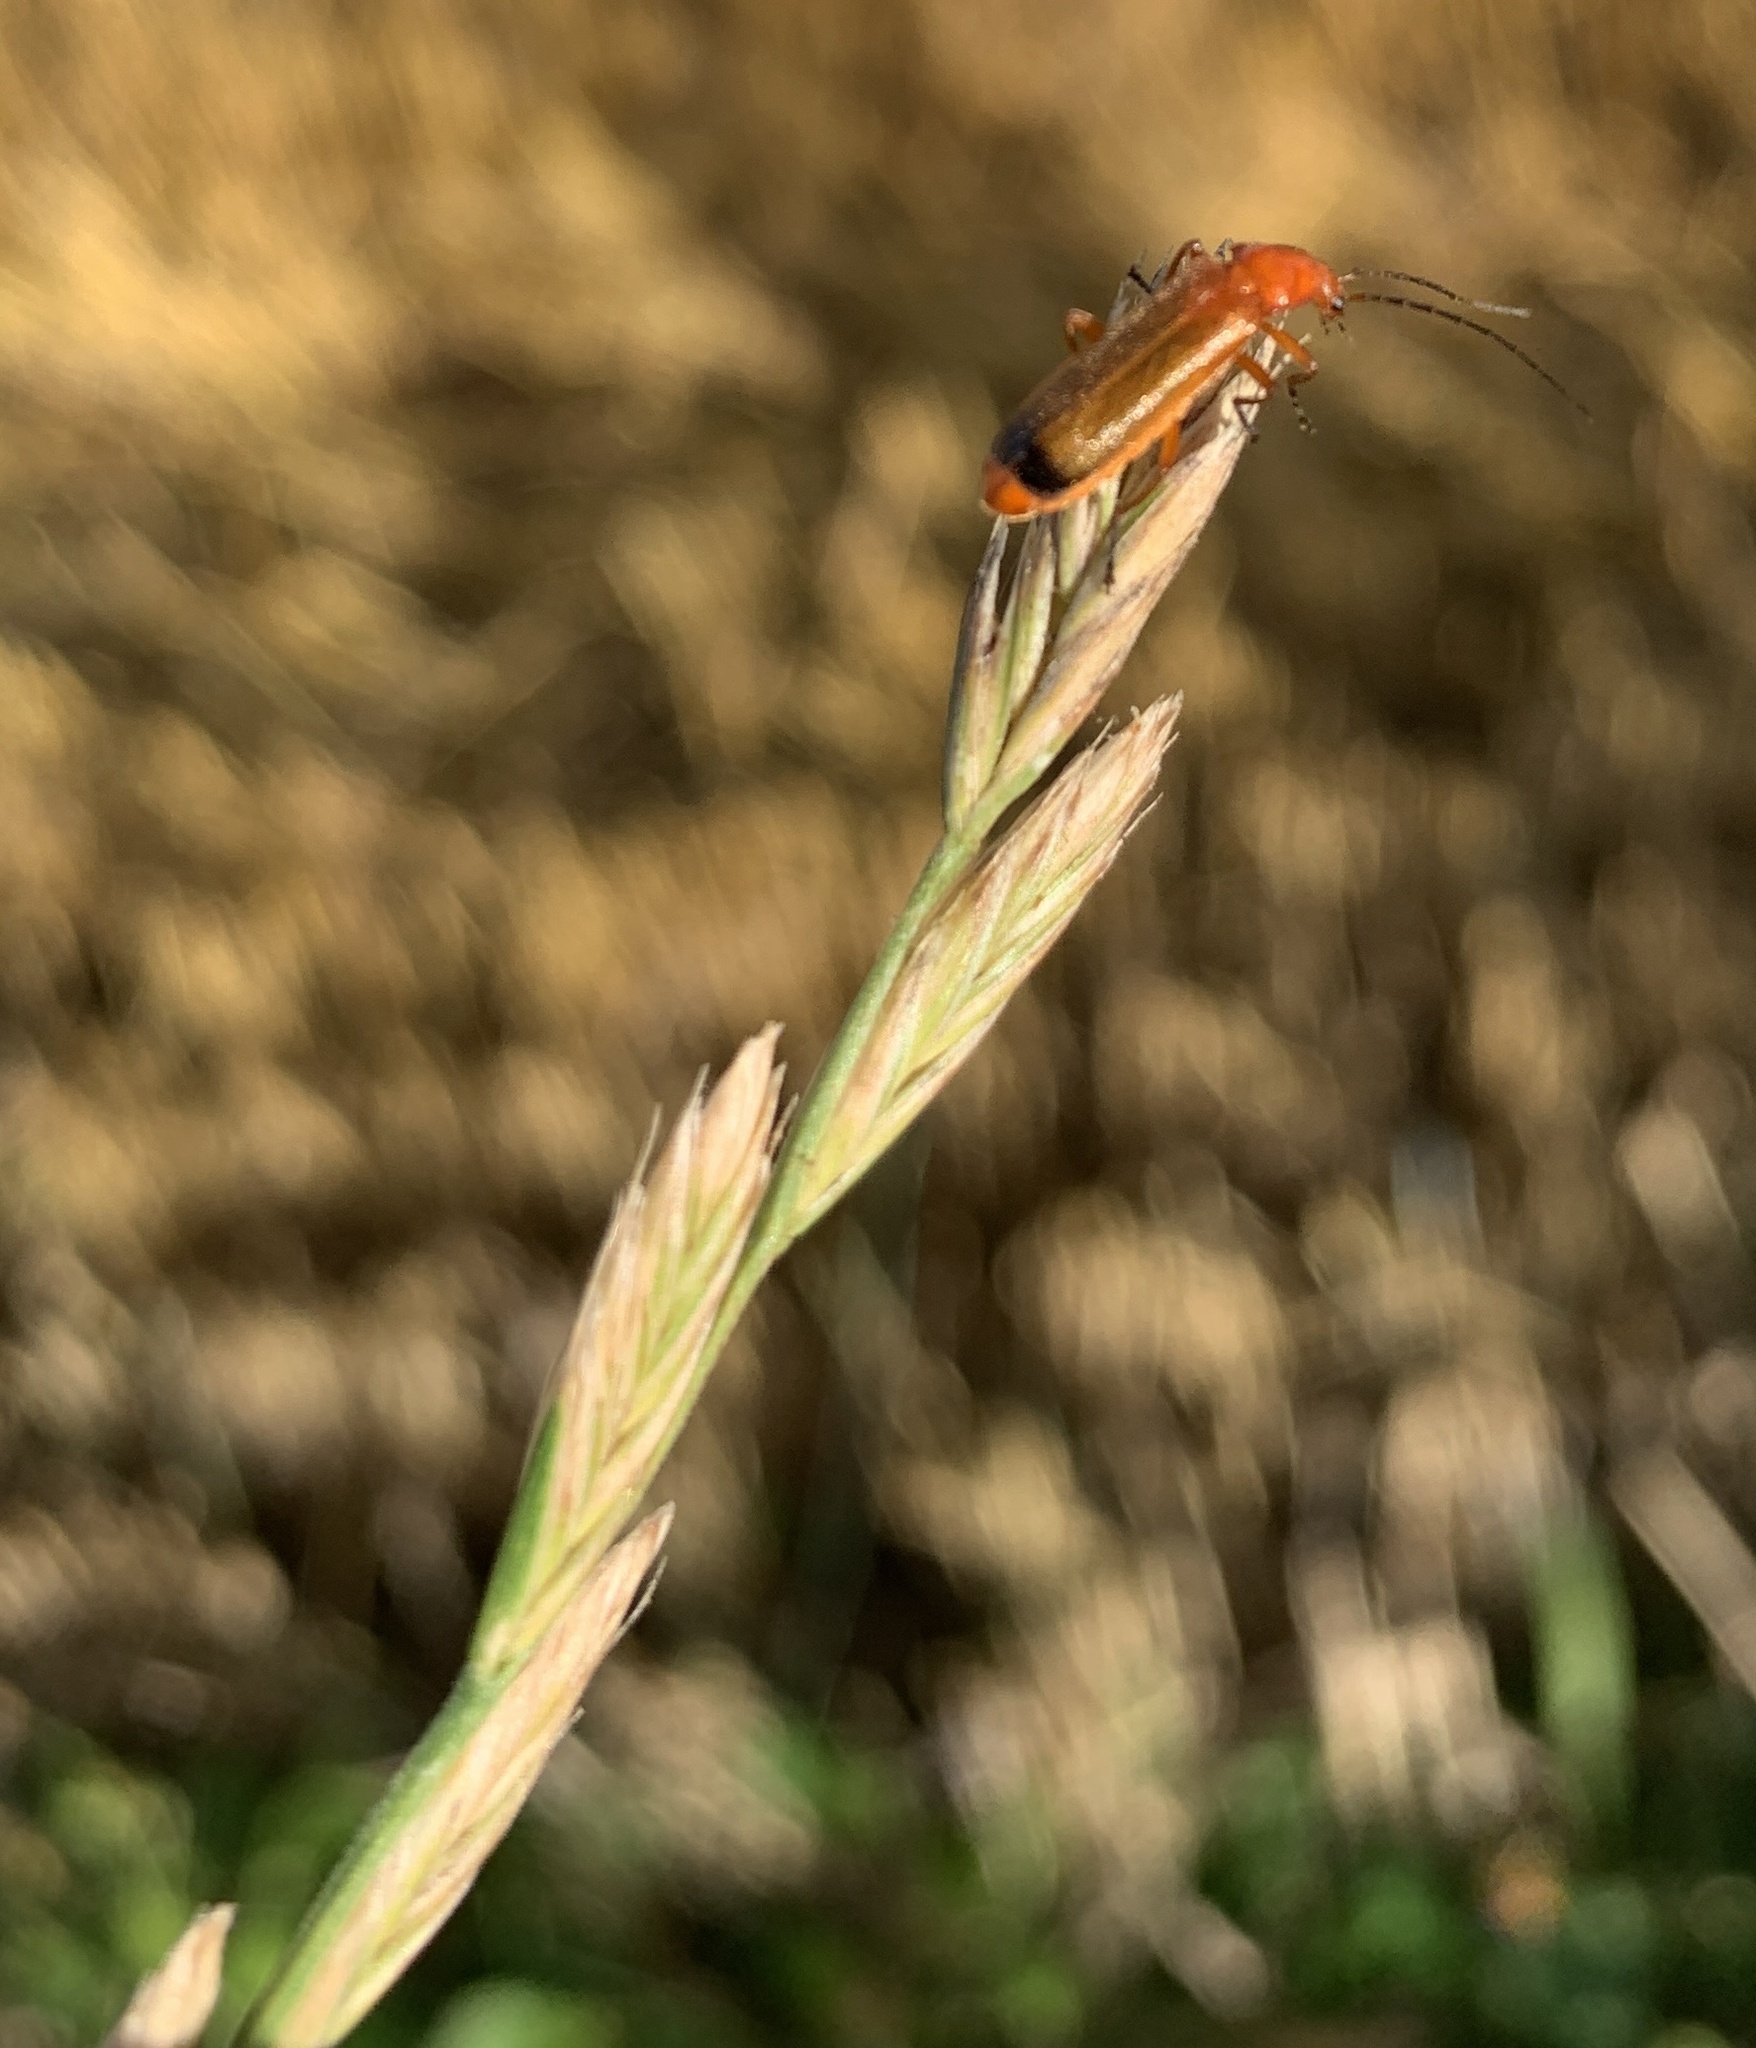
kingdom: Animalia
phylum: Arthropoda
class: Insecta
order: Coleoptera
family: Cantharidae
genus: Rhagonycha
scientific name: Rhagonycha fulva
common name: Common red soldier beetle
